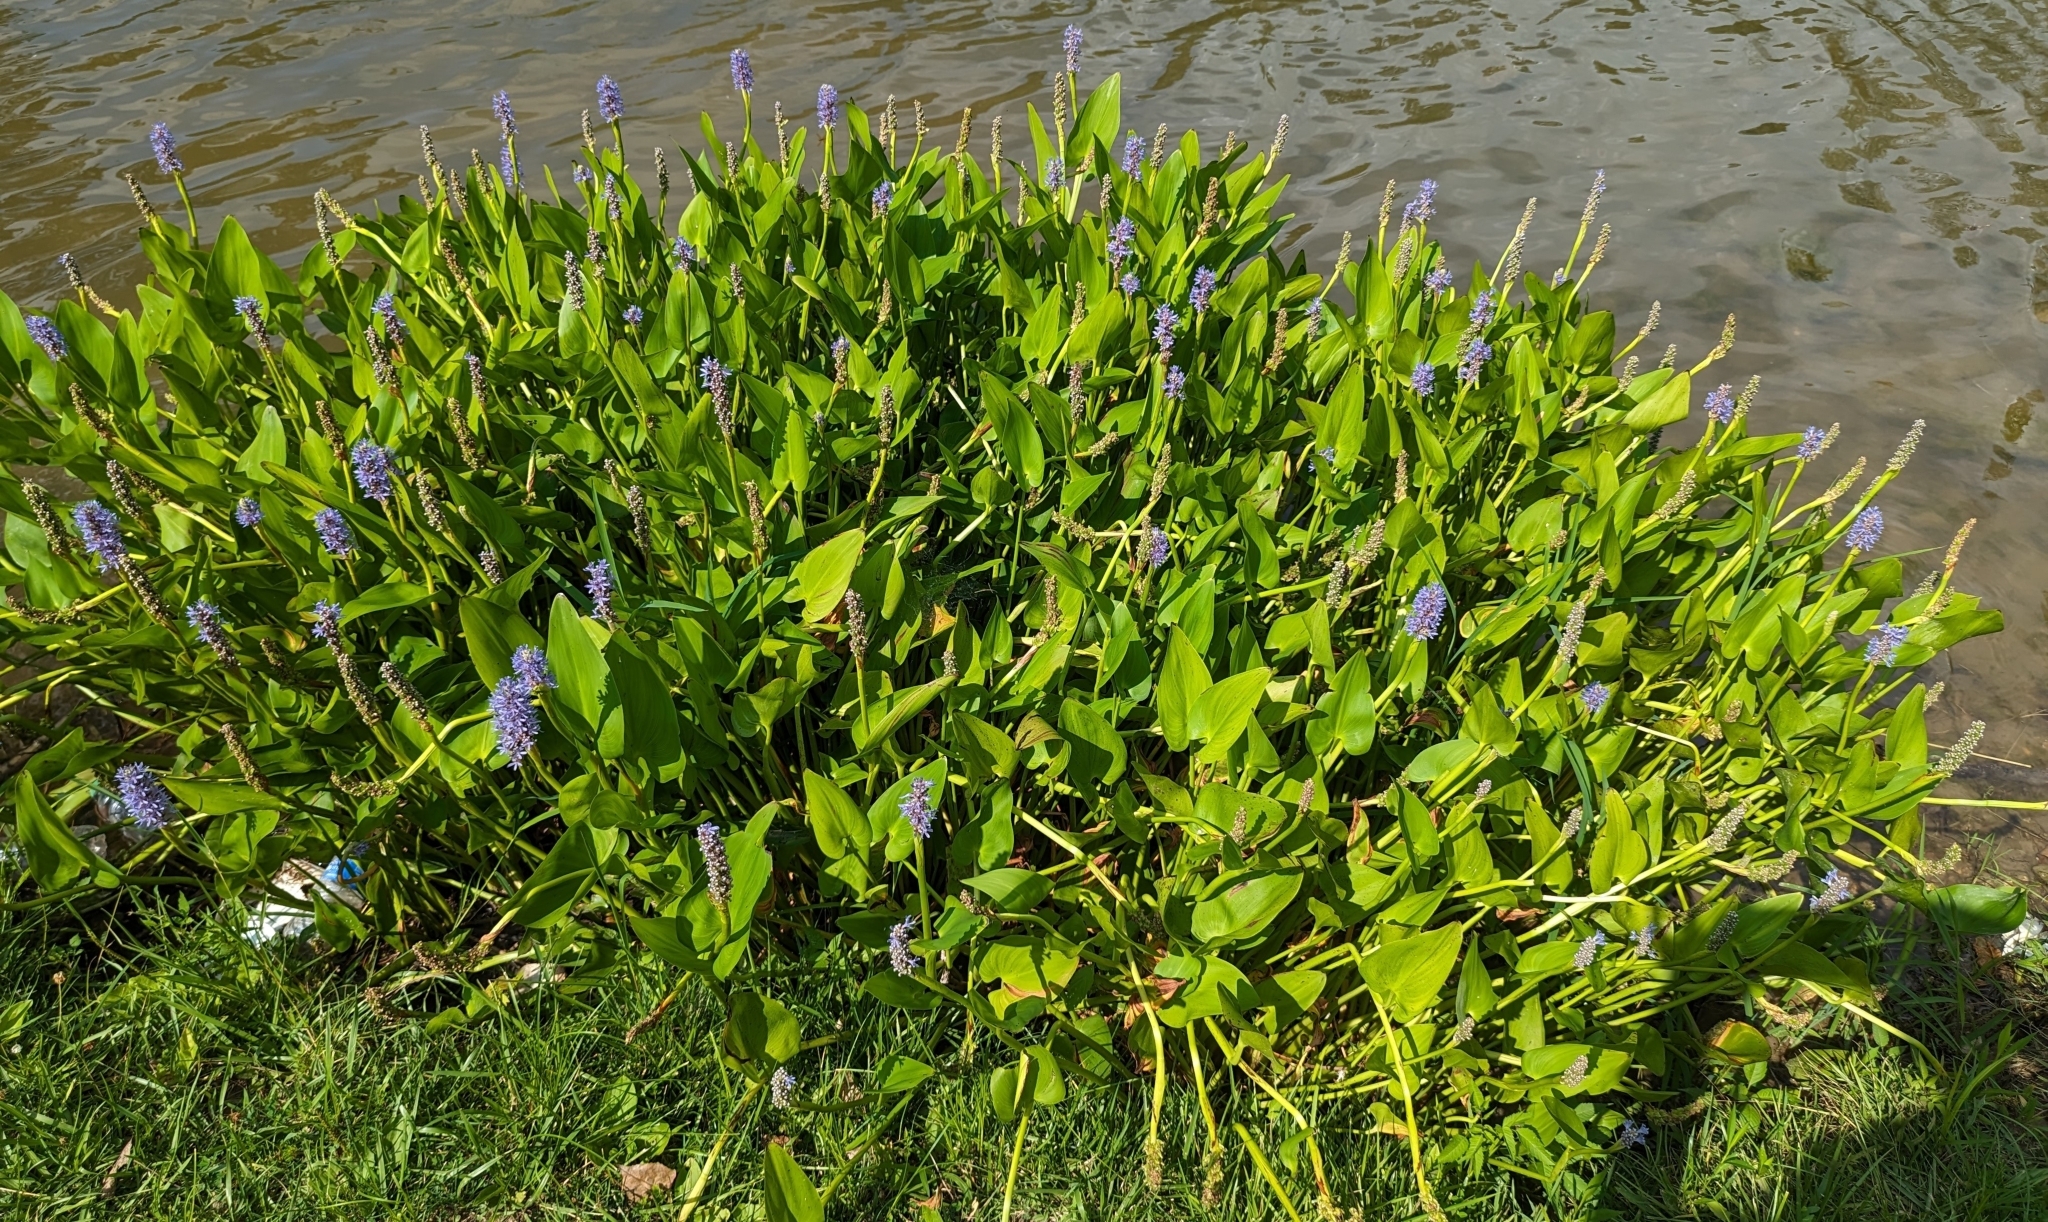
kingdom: Plantae
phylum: Tracheophyta
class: Liliopsida
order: Commelinales
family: Pontederiaceae
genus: Pontederia
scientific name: Pontederia cordata
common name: Pickerelweed
